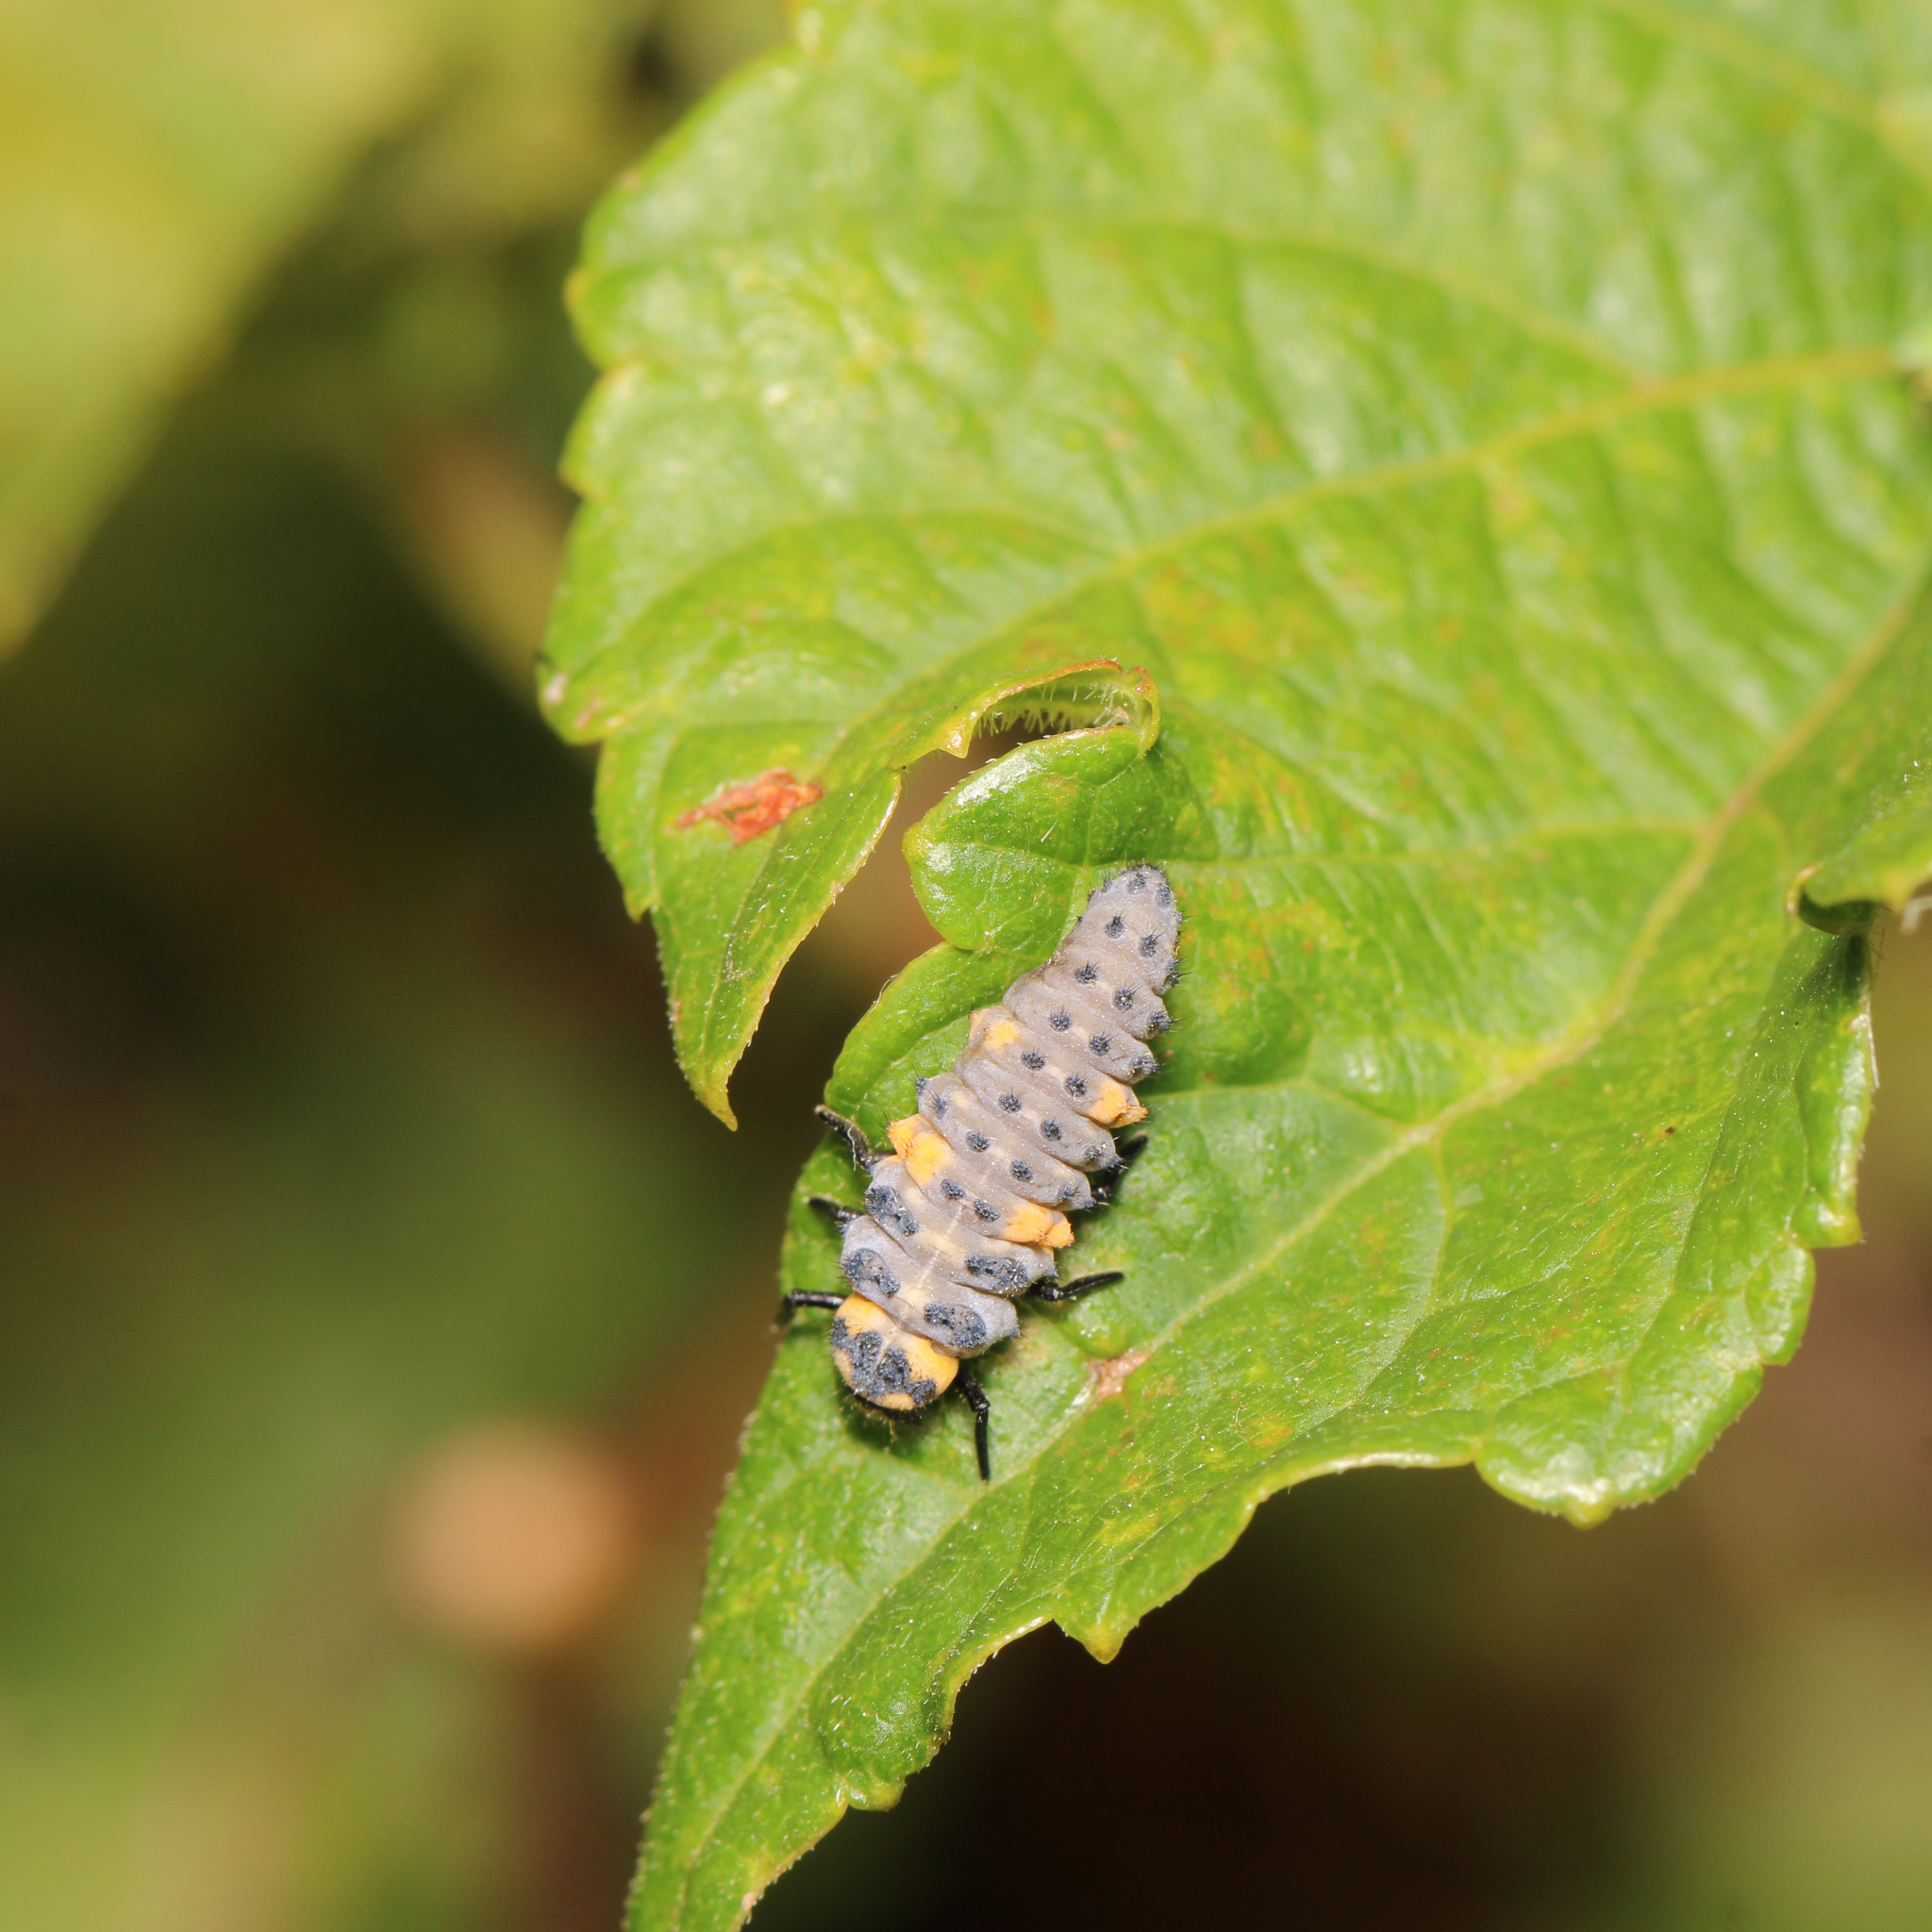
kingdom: Animalia
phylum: Arthropoda
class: Insecta
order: Coleoptera
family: Coccinellidae
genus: Coccinella
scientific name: Coccinella septempunctata
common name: Sevenspotted lady beetle
